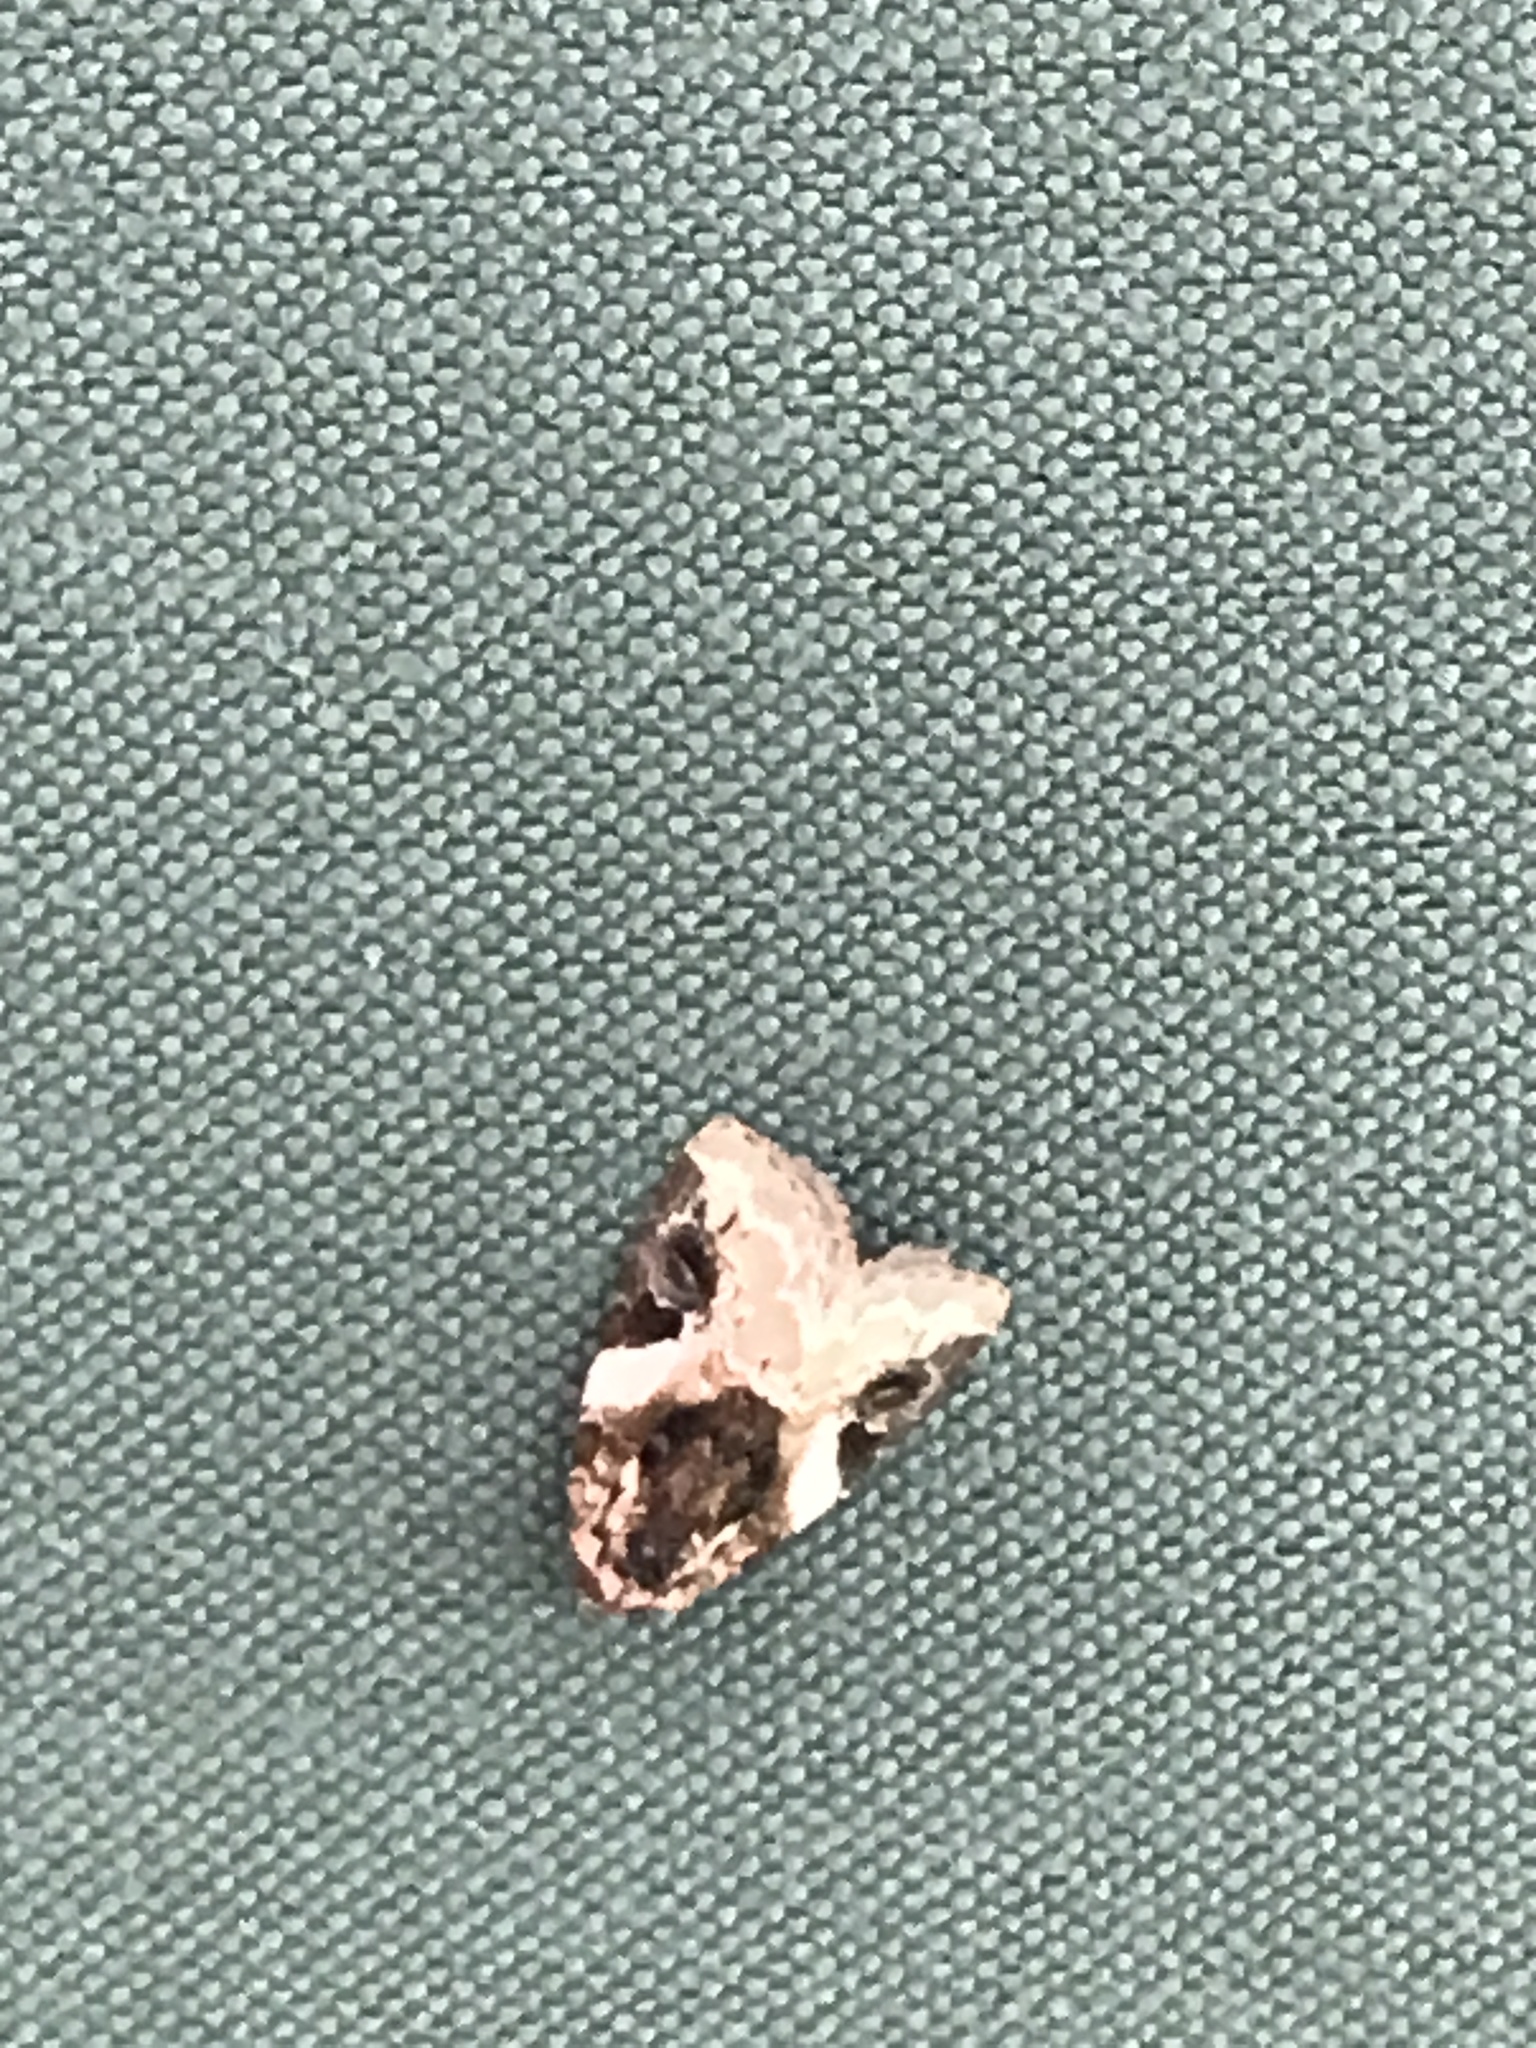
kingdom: Animalia
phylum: Arthropoda
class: Insecta
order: Lepidoptera
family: Noctuidae
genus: Pseudeustrotia
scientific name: Pseudeustrotia carneola
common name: Pink-barred lithacodia moth
